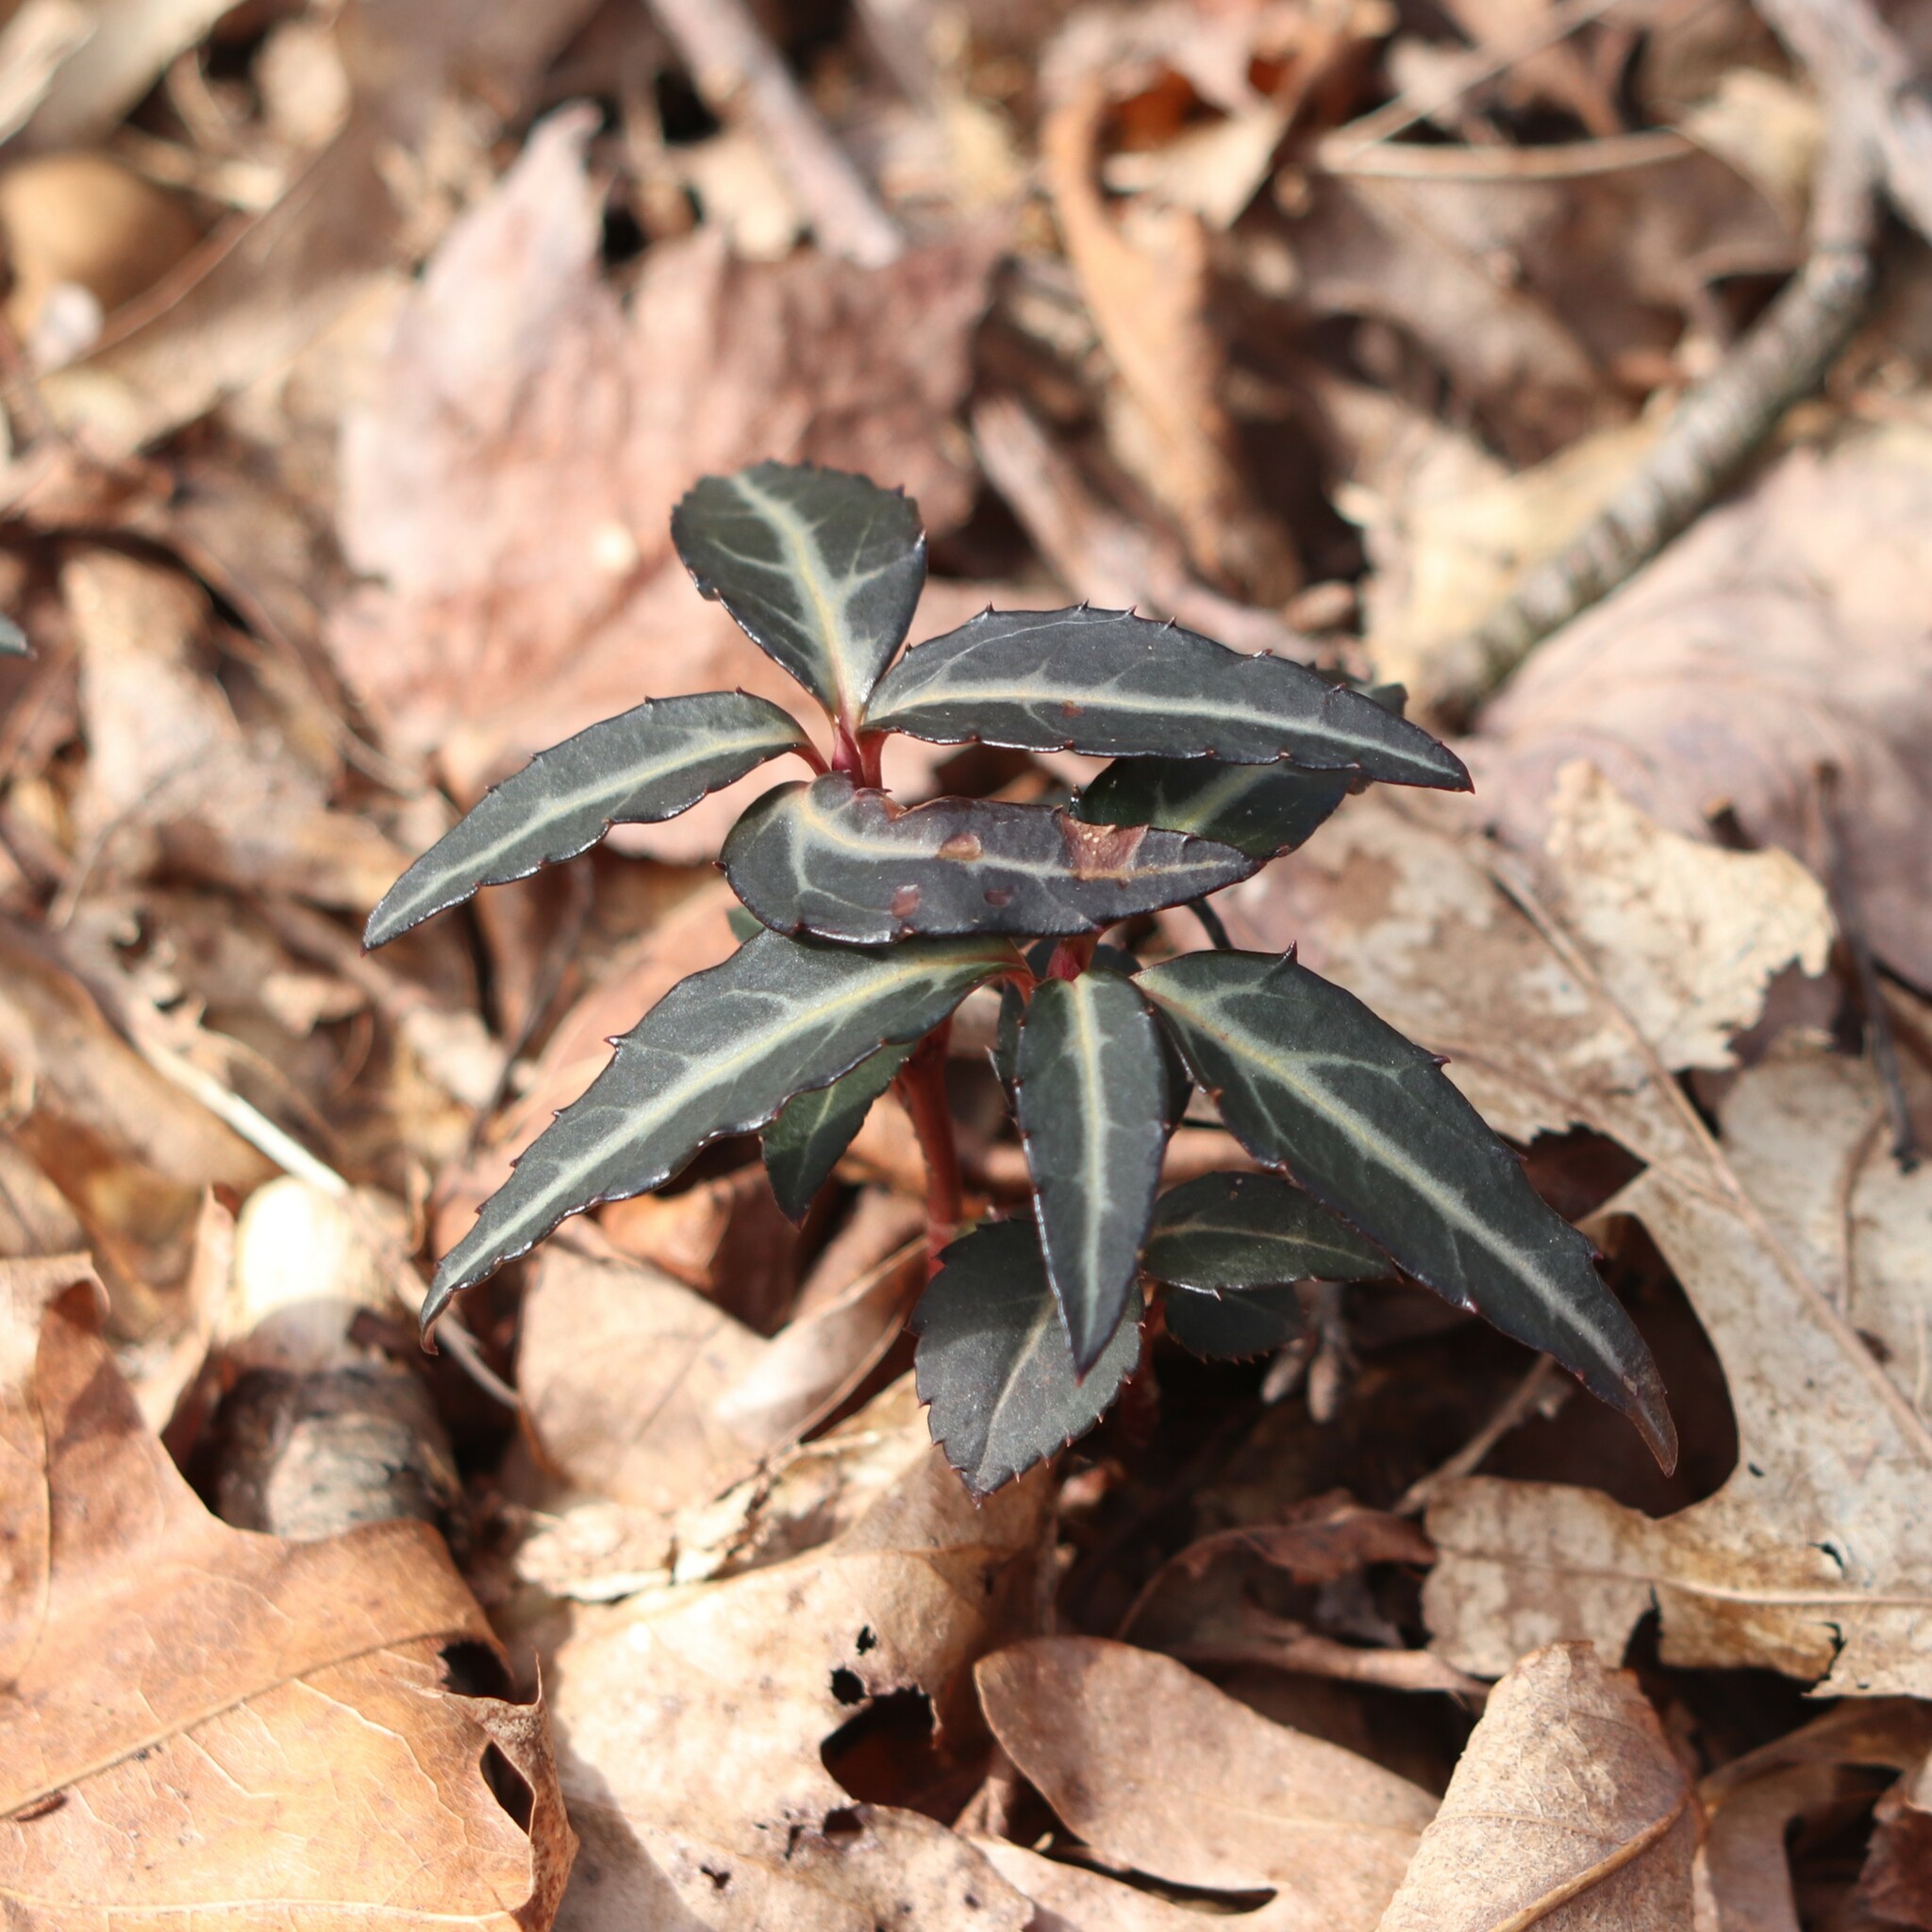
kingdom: Plantae
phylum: Tracheophyta
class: Magnoliopsida
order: Ericales
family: Ericaceae
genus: Chimaphila
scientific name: Chimaphila maculata
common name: Spotted pipsissewa
